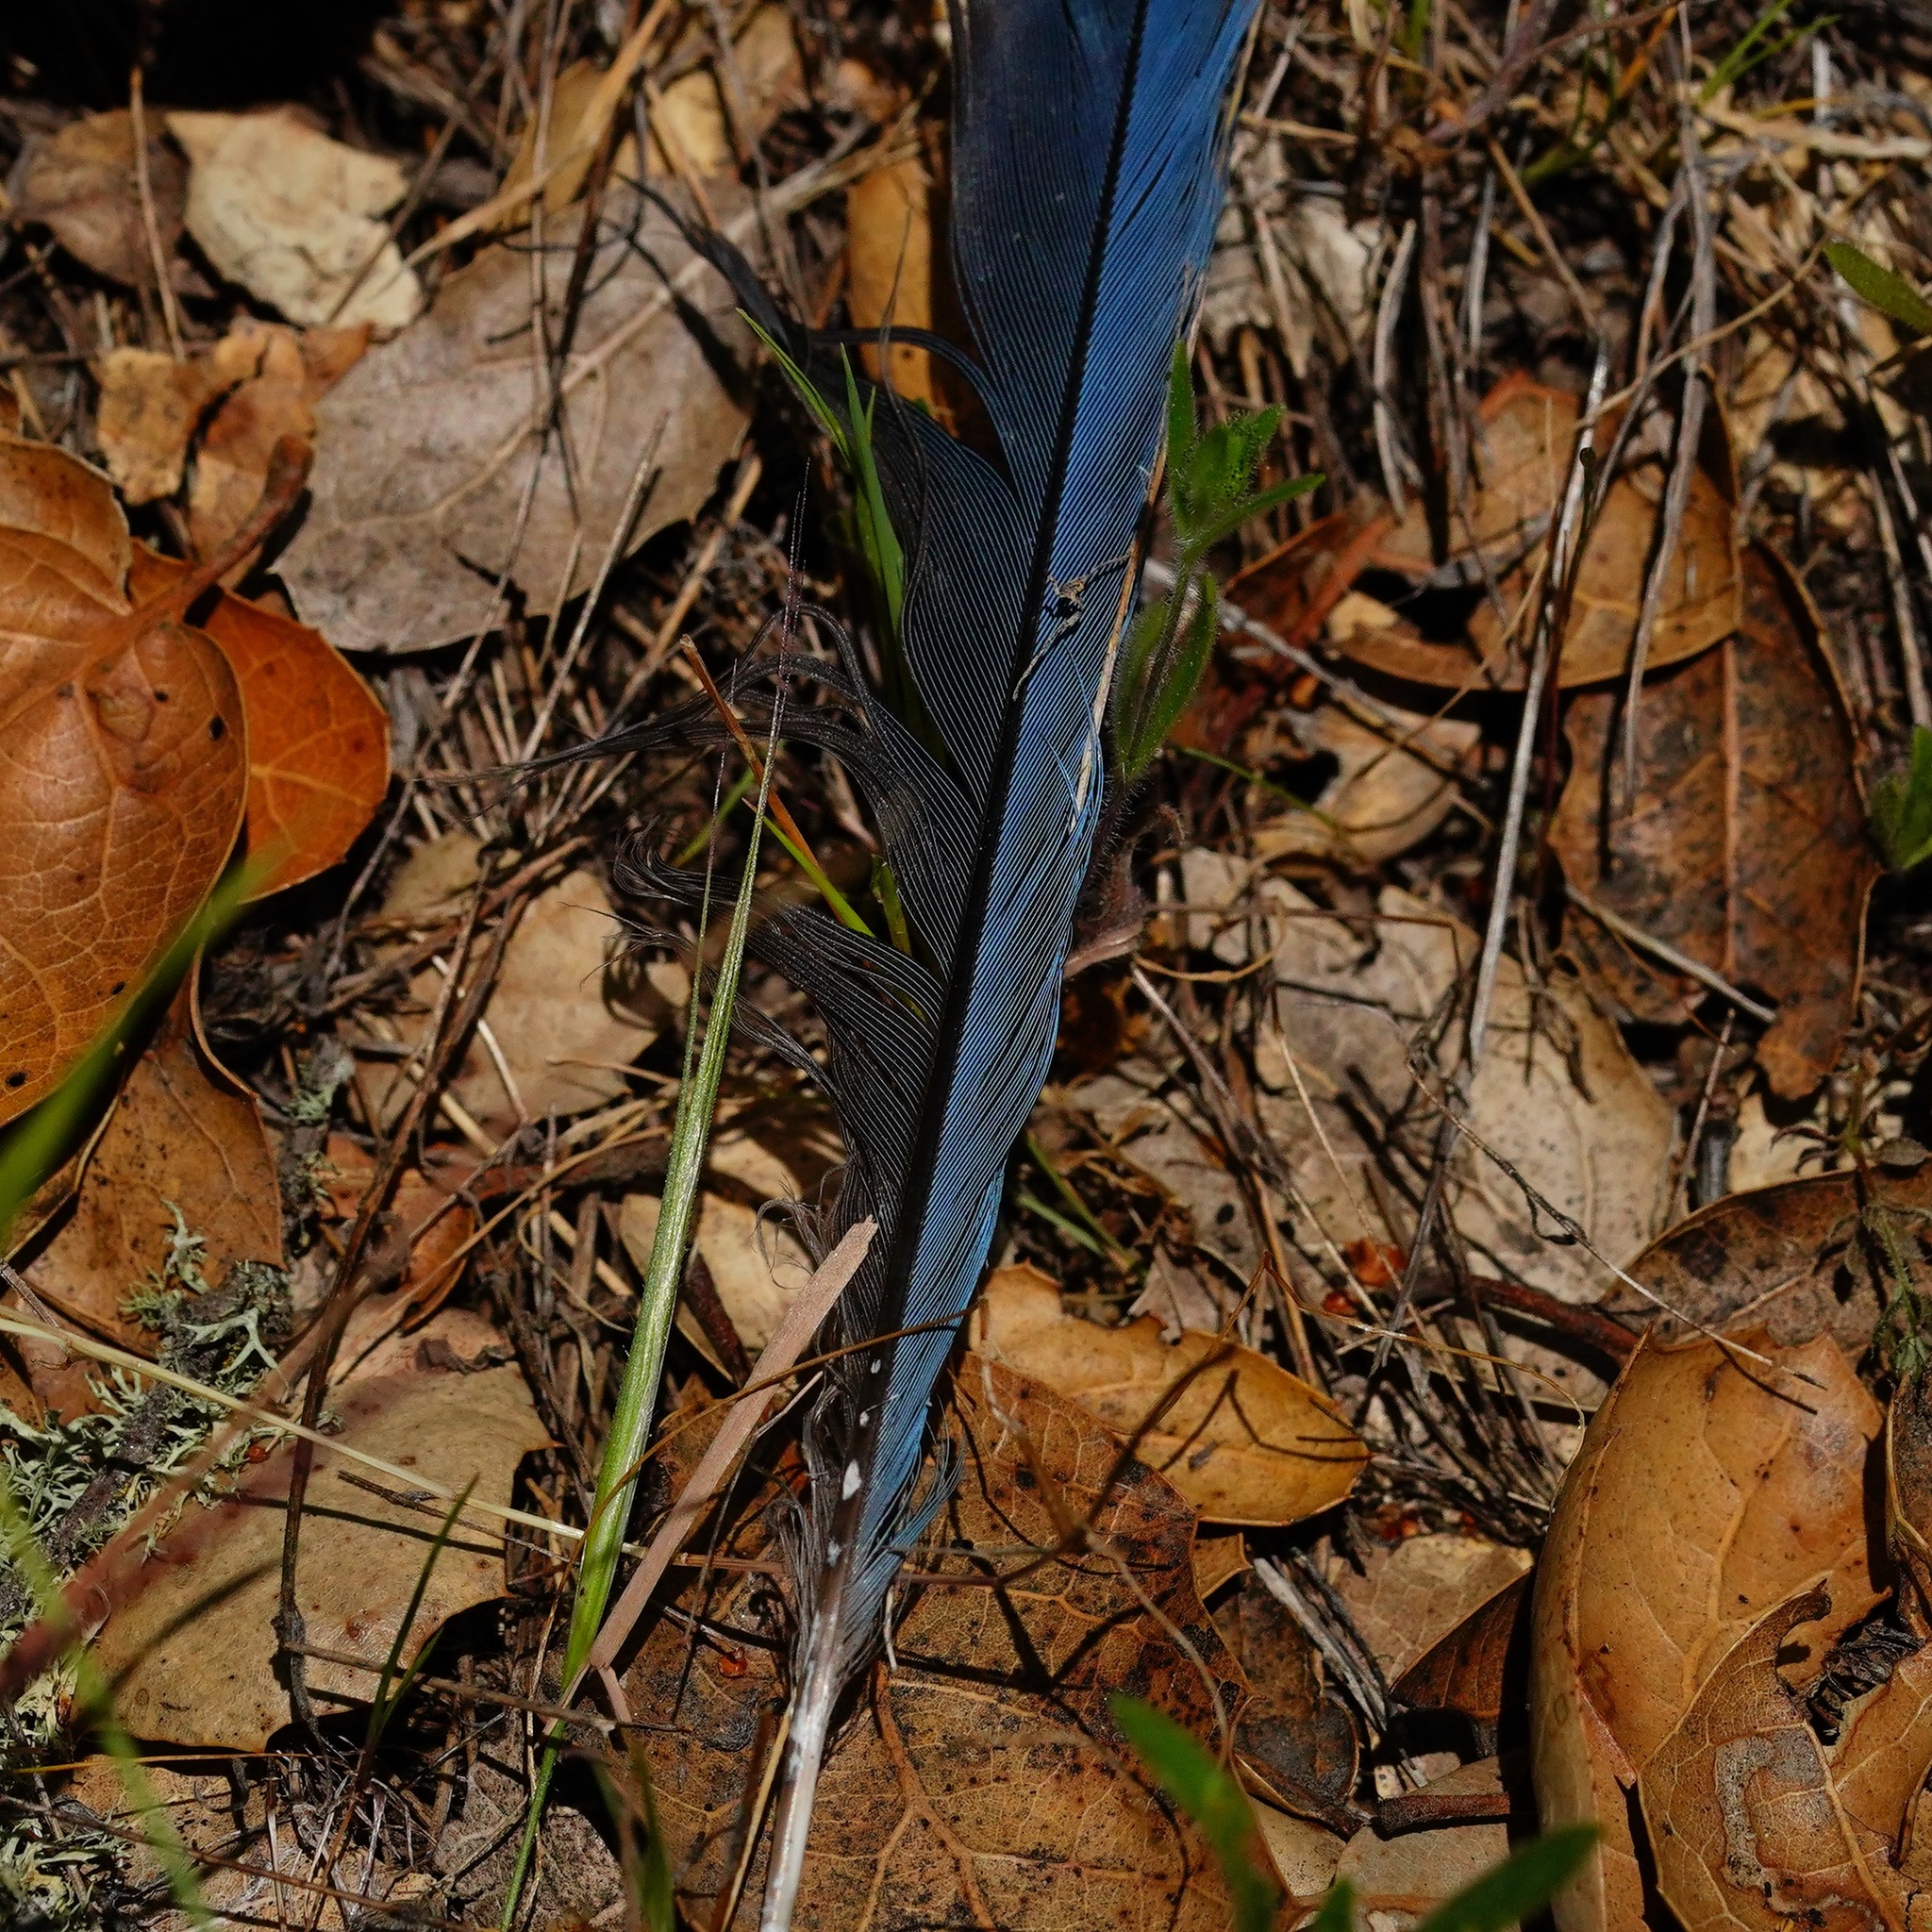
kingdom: Animalia
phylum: Chordata
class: Aves
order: Passeriformes
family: Corvidae
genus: Cyanocitta
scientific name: Cyanocitta stelleri
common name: Steller's jay
